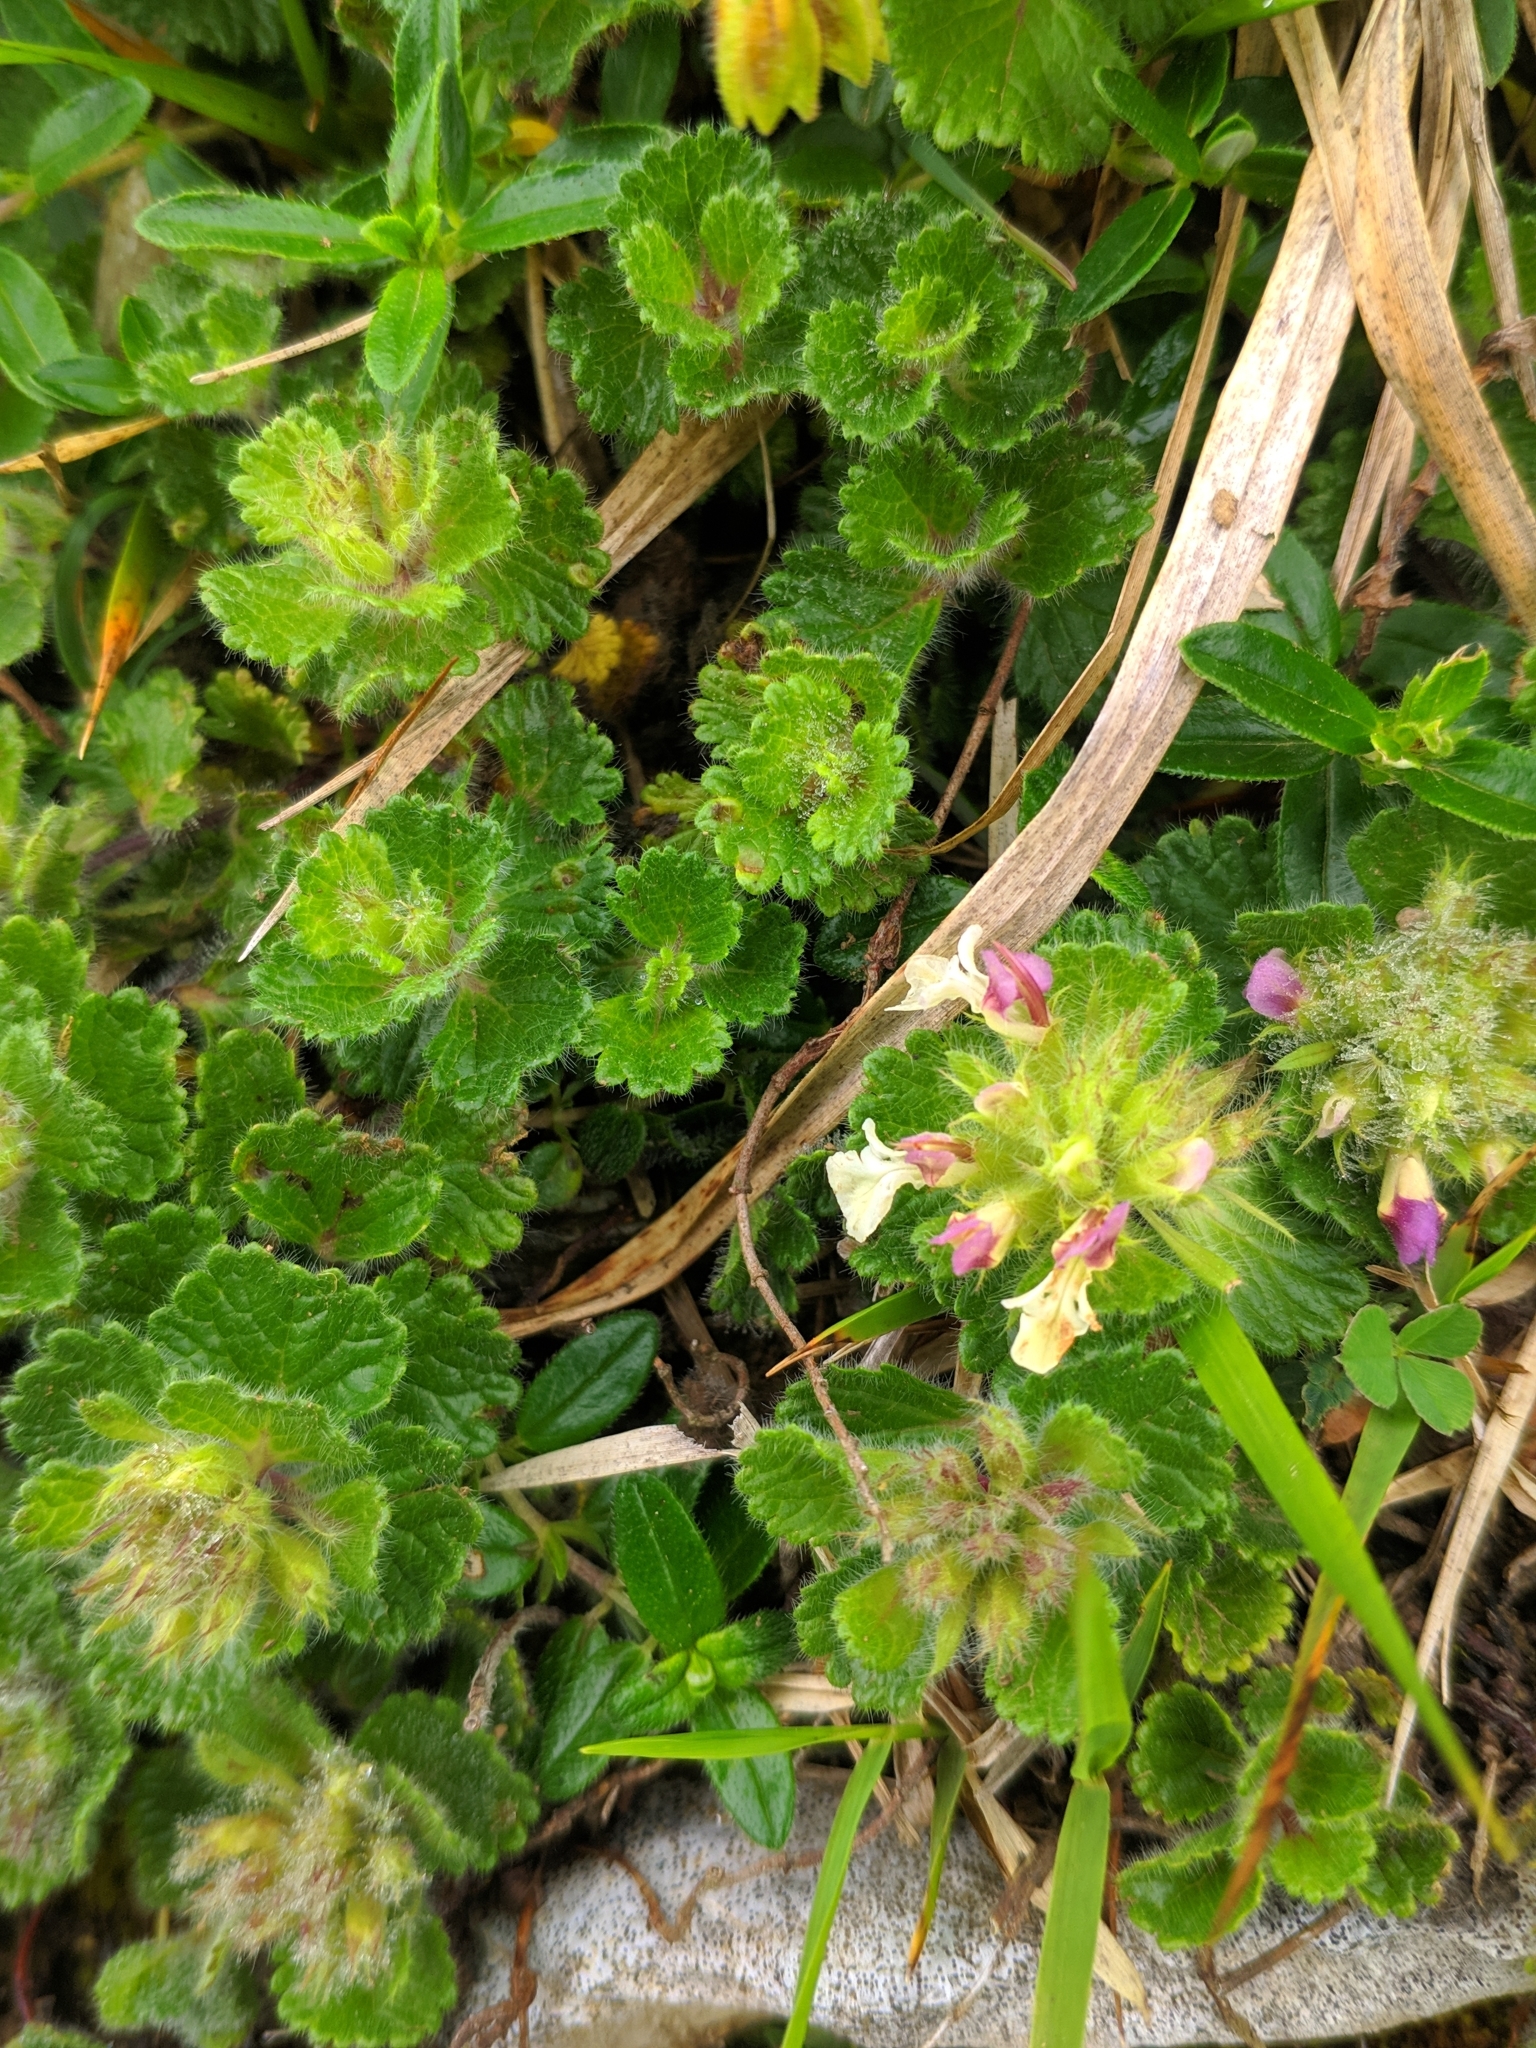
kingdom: Plantae
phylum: Tracheophyta
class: Magnoliopsida
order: Lamiales
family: Lamiaceae
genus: Teucrium
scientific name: Teucrium pyrenaicum
